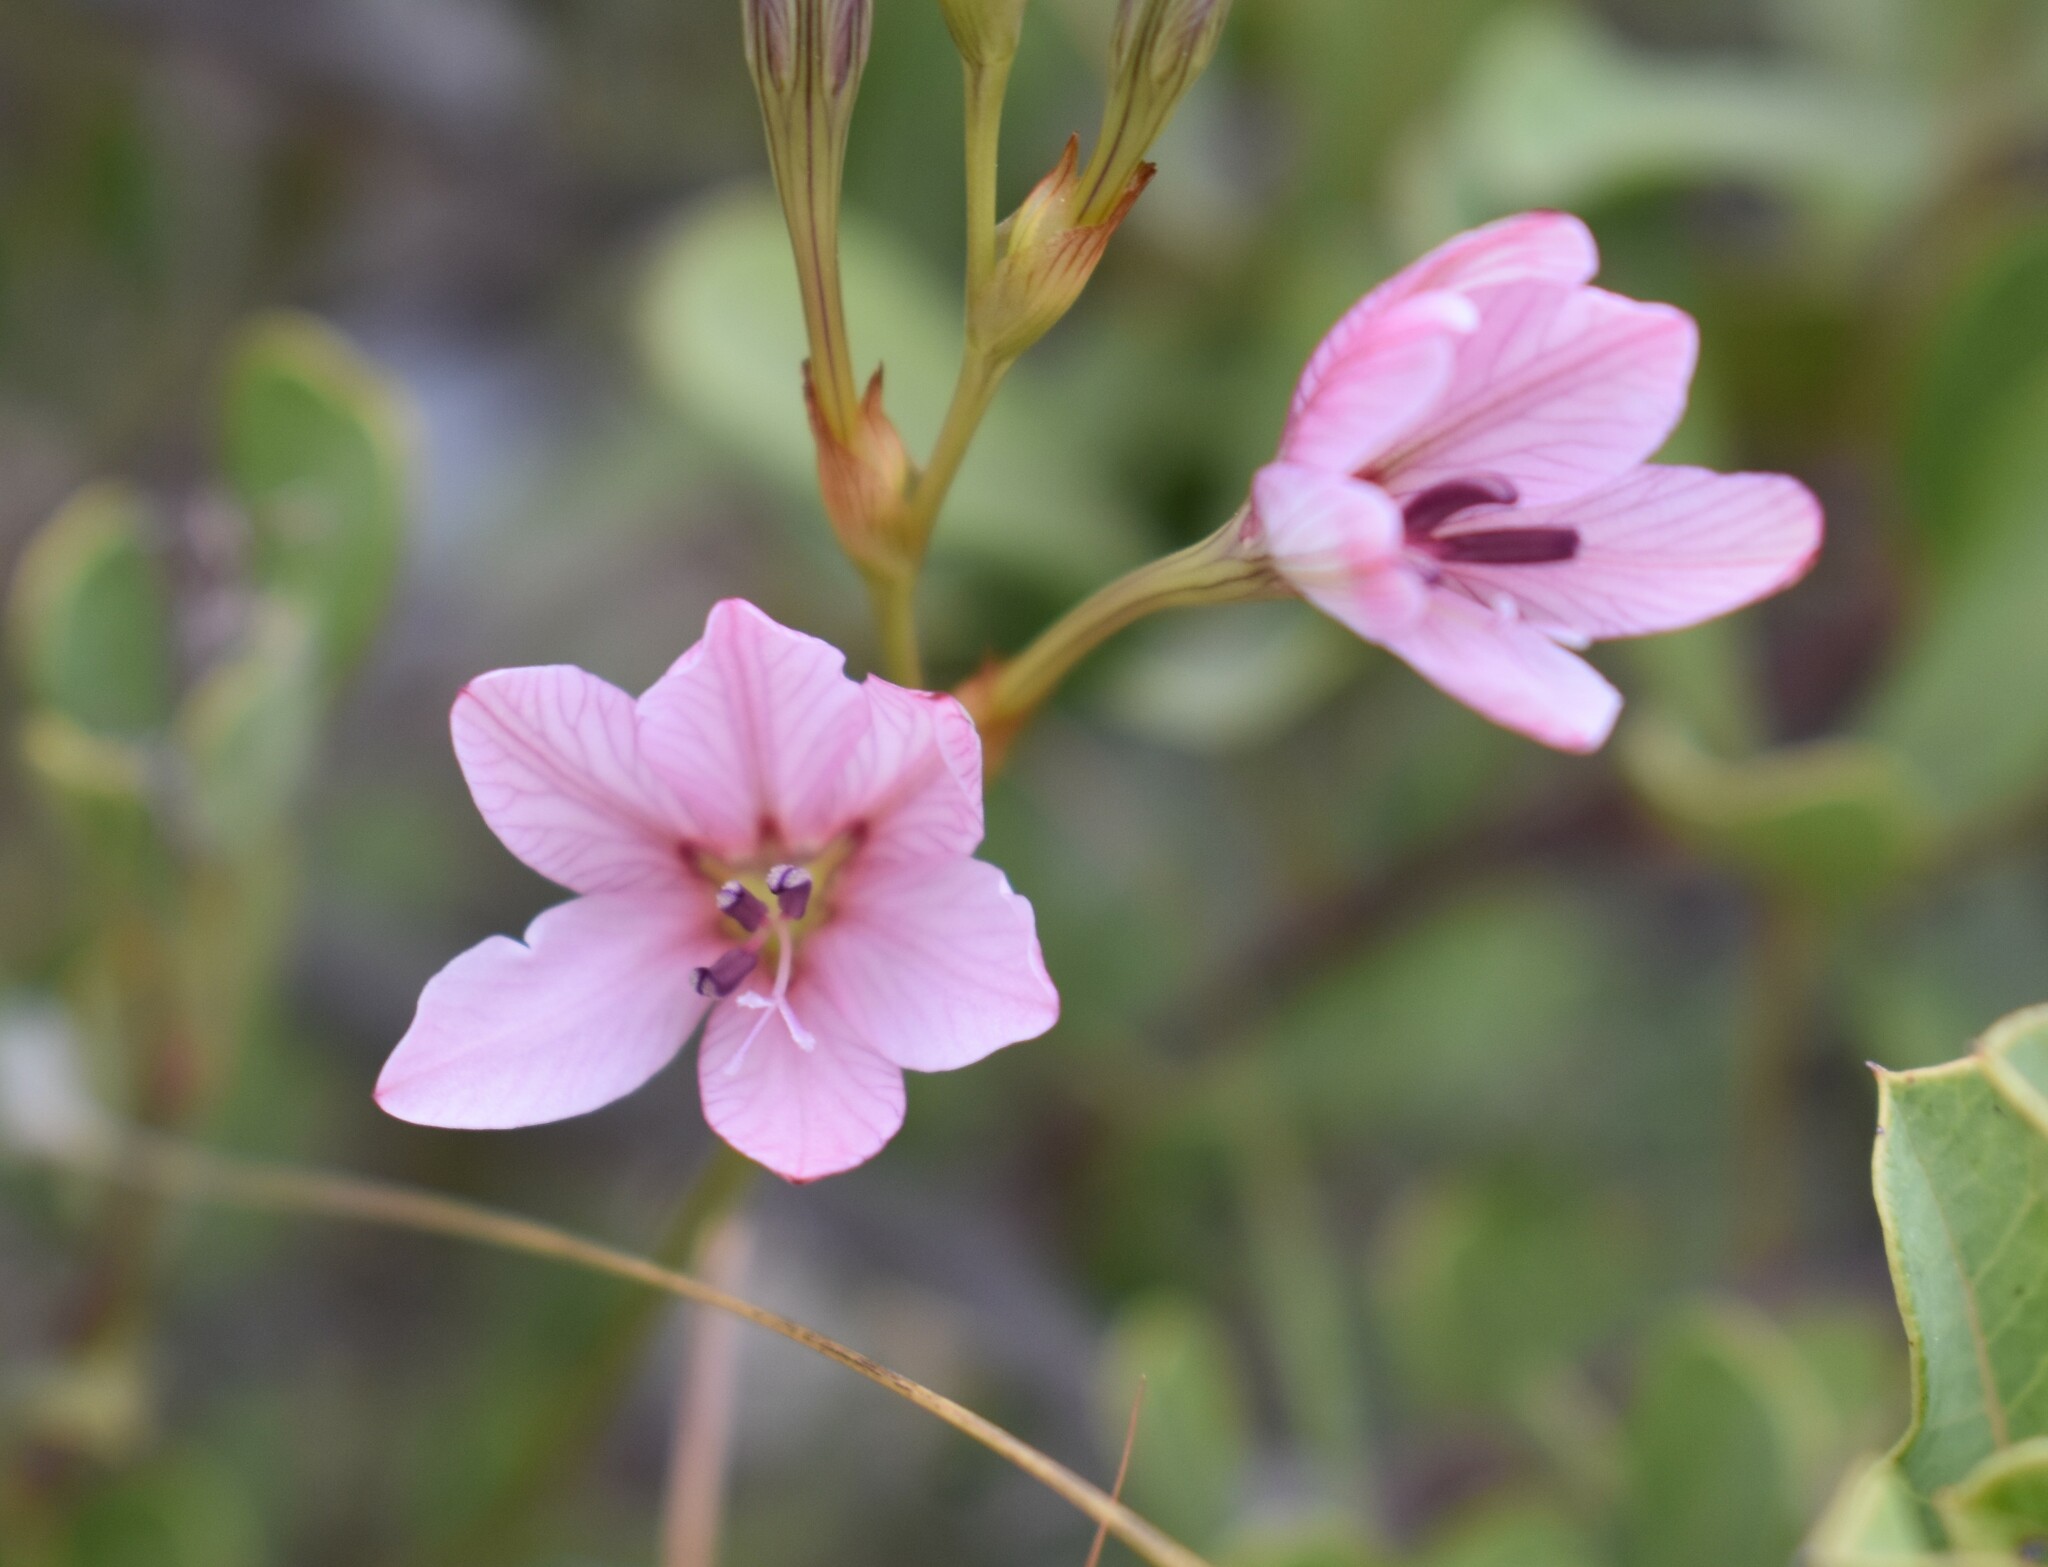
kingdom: Plantae
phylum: Tracheophyta
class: Liliopsida
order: Asparagales
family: Iridaceae
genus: Tritonia
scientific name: Tritonia bakeri
